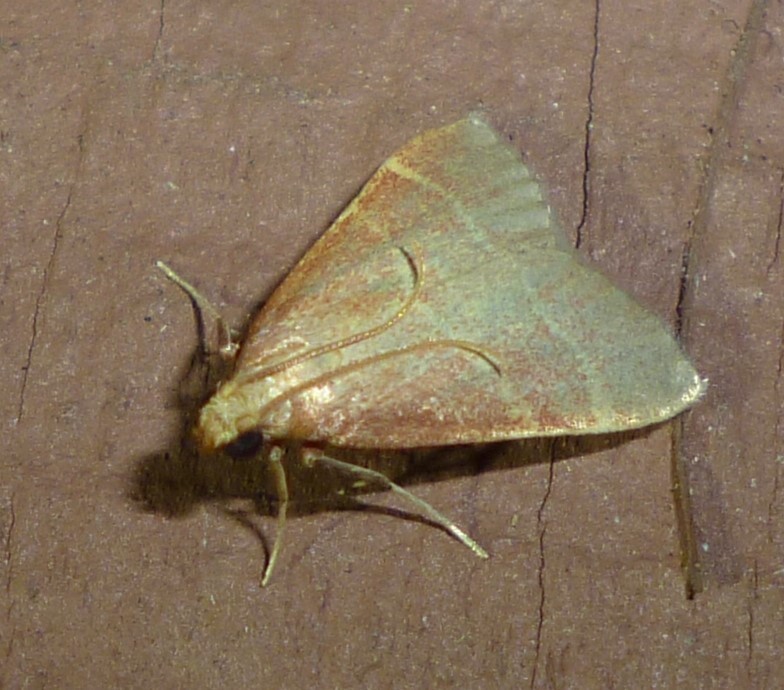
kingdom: Animalia
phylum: Arthropoda
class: Insecta
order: Lepidoptera
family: Pyralidae
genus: Arta
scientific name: Arta statalis
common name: Posturing arta moth
